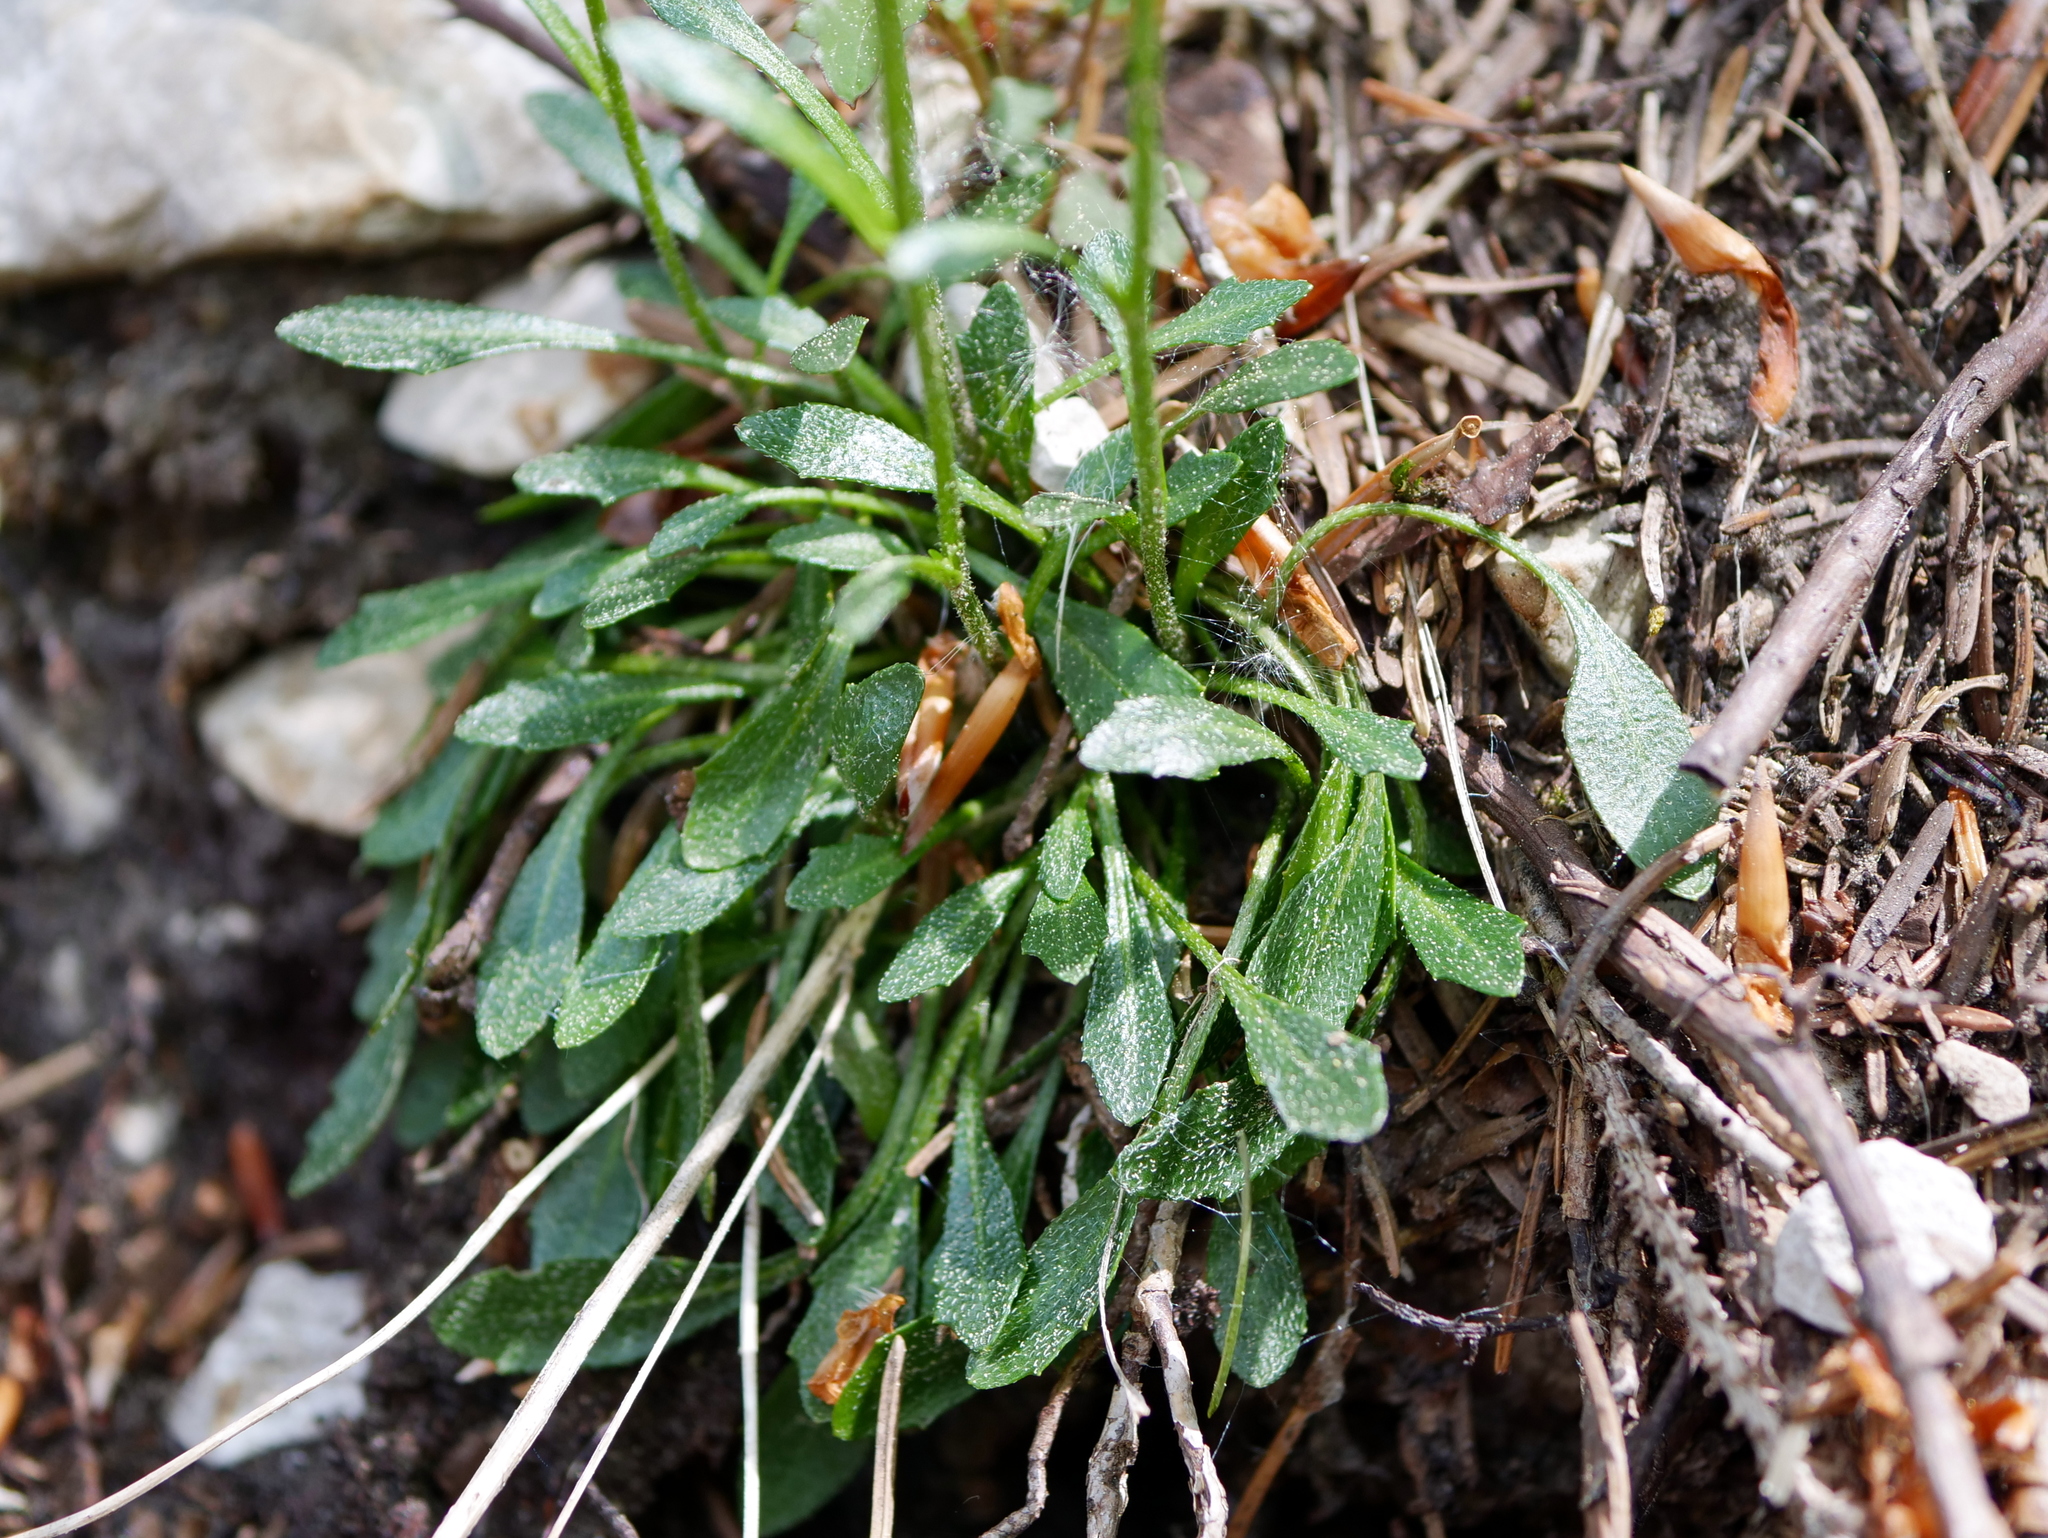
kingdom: Plantae
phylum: Tracheophyta
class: Magnoliopsida
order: Brassicales
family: Brassicaceae
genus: Kernera
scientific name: Kernera saxatilis
